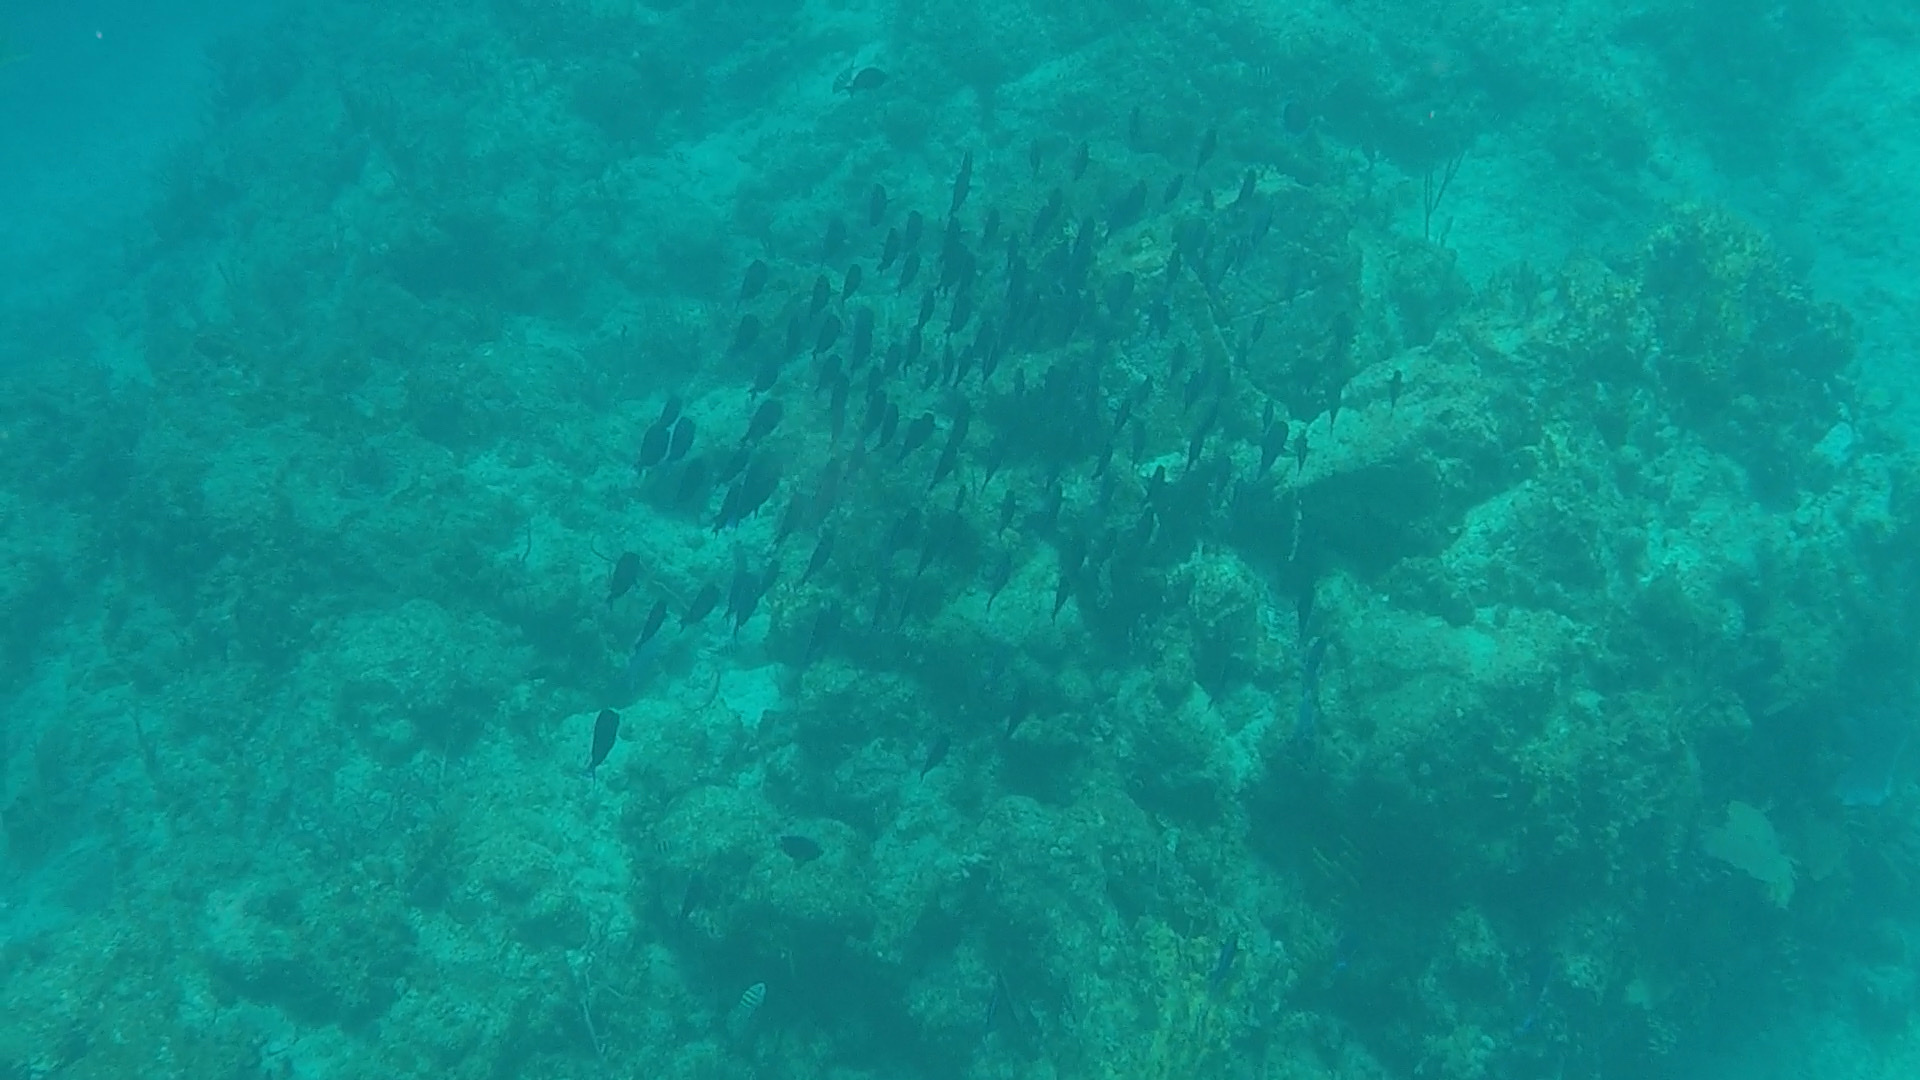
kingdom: Animalia
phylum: Chordata
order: Perciformes
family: Acanthuridae
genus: Acanthurus
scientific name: Acanthurus coeruleus
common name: Blue tang
